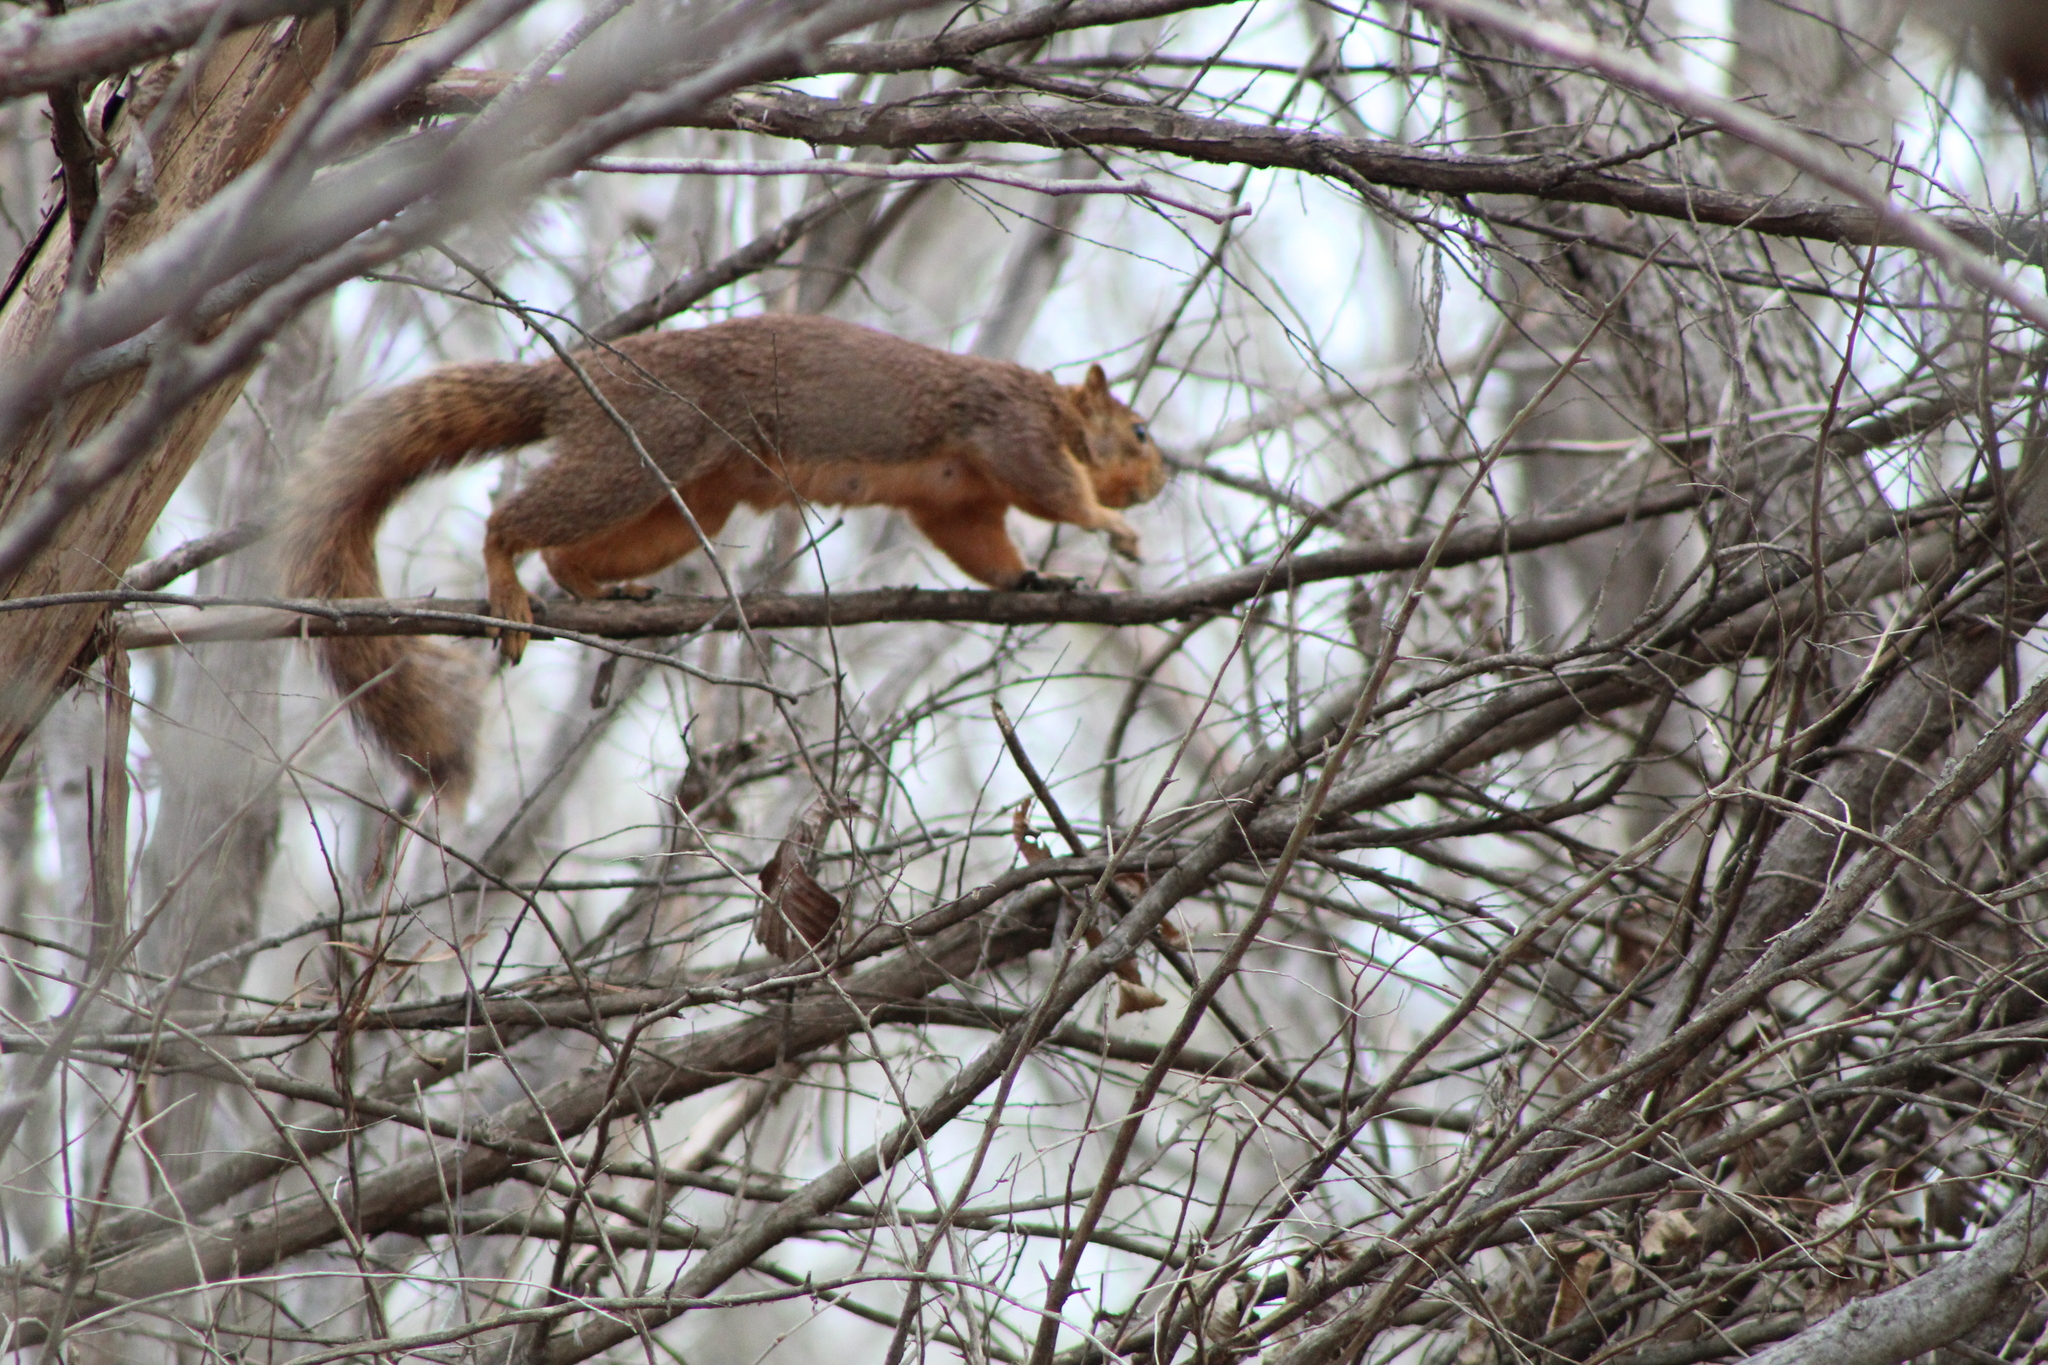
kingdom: Animalia
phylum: Chordata
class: Mammalia
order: Rodentia
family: Sciuridae
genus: Sciurus
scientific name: Sciurus niger
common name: Fox squirrel
